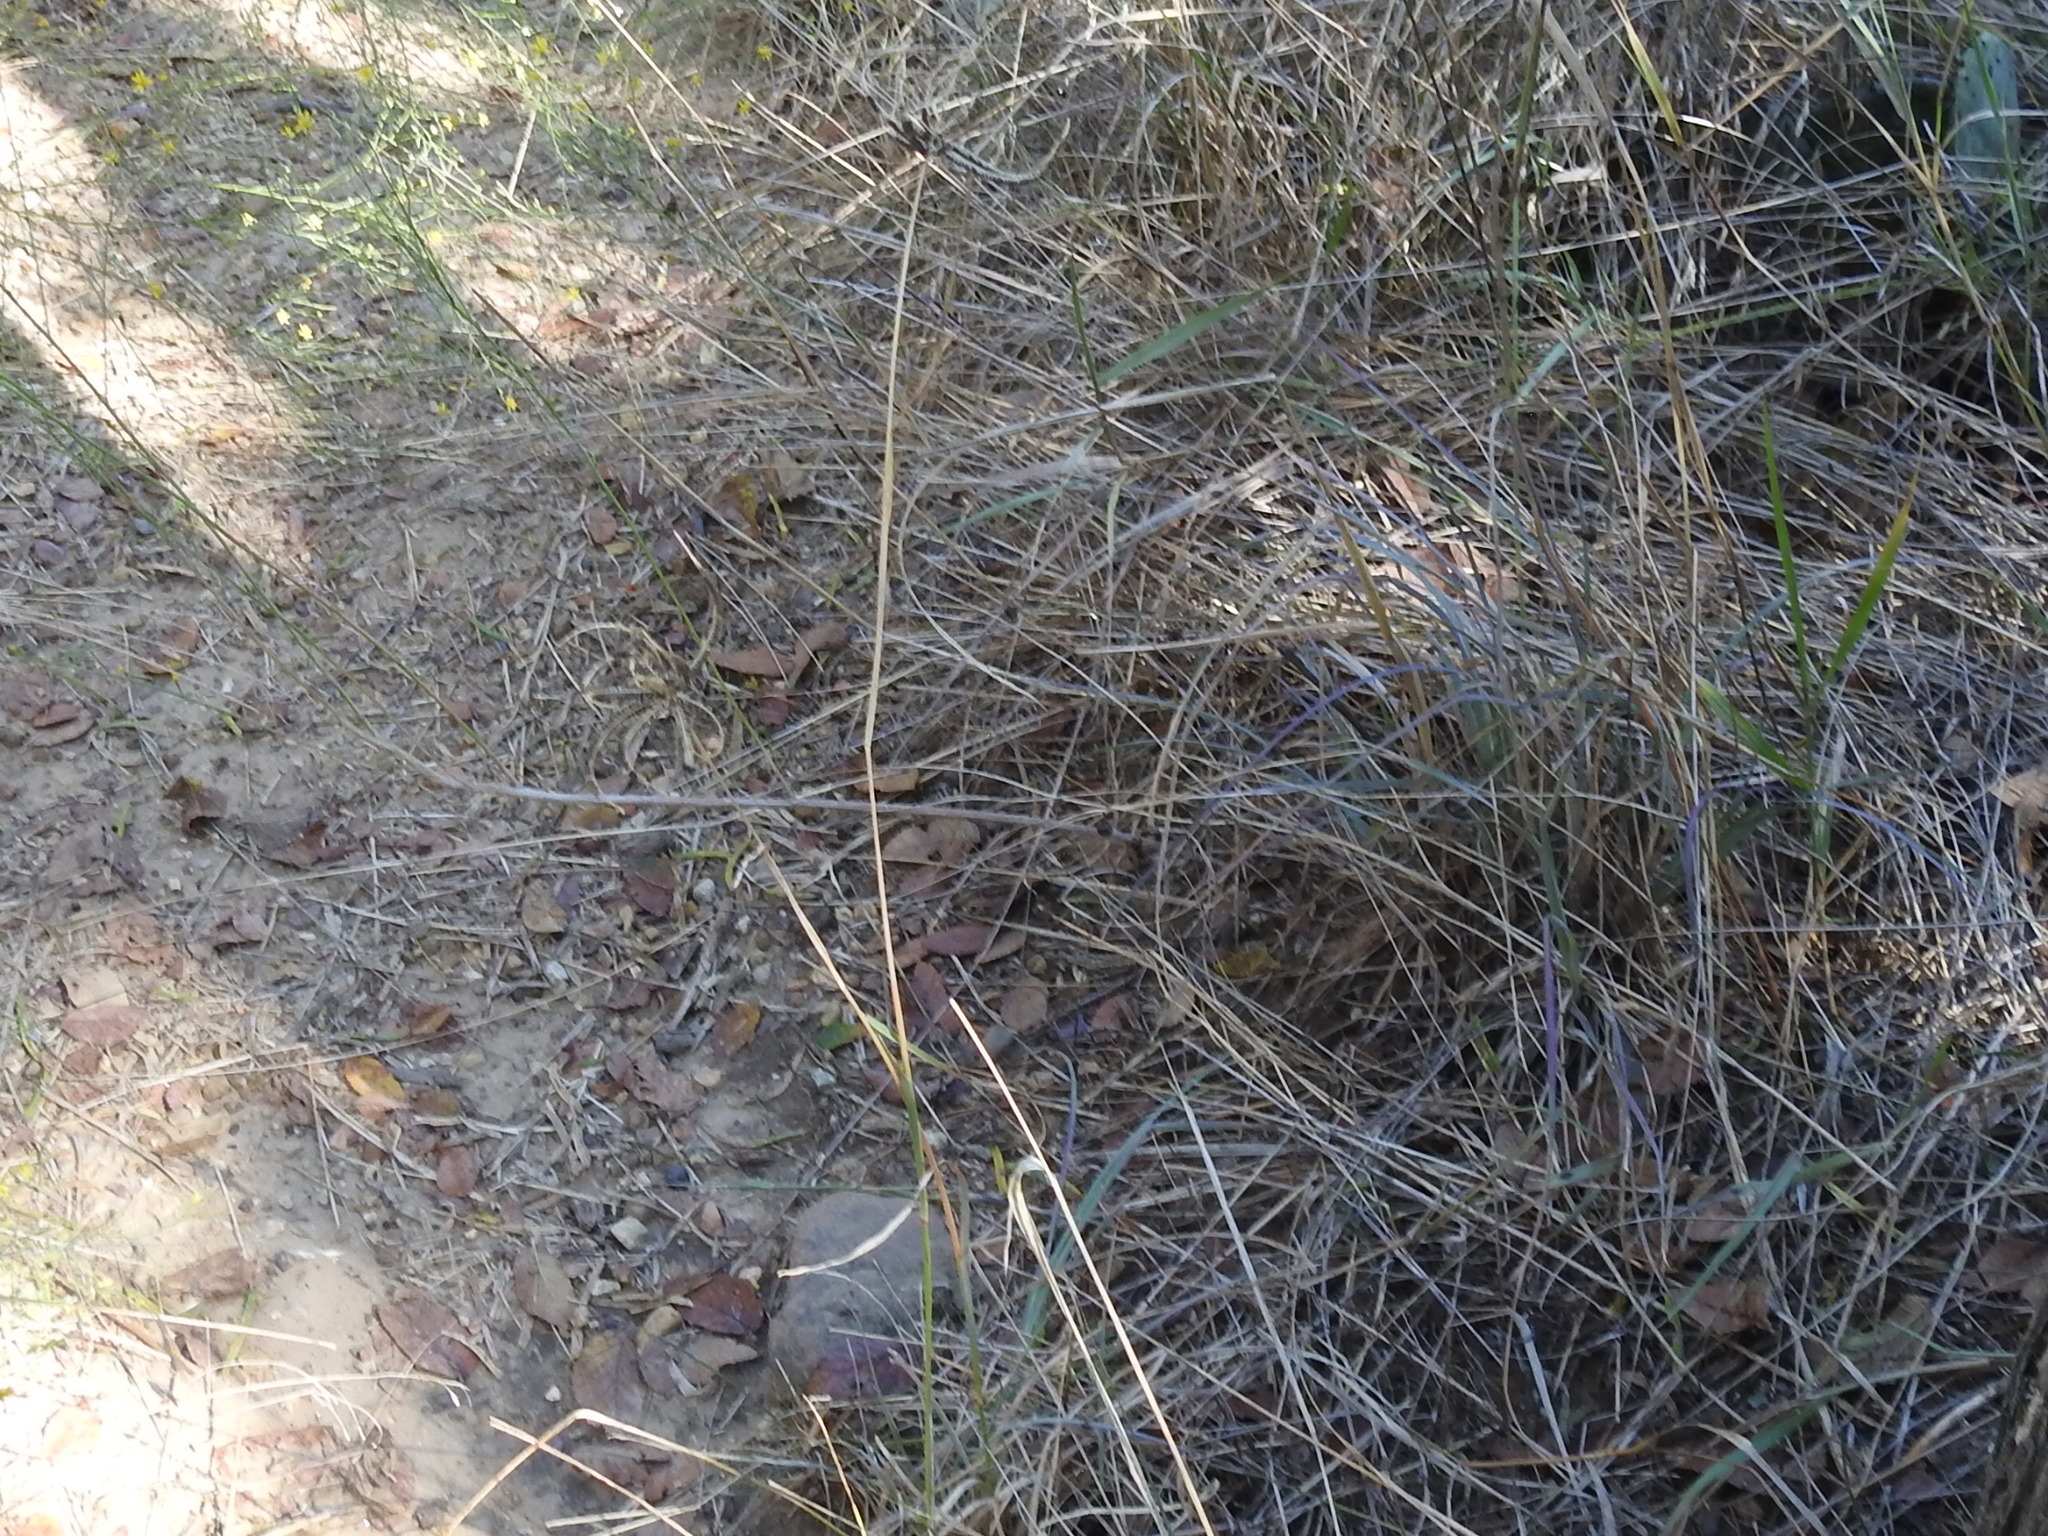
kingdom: Plantae
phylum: Tracheophyta
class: Liliopsida
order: Poales
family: Poaceae
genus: Chloris
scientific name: Chloris cucullata
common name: Hooded windmill grass
